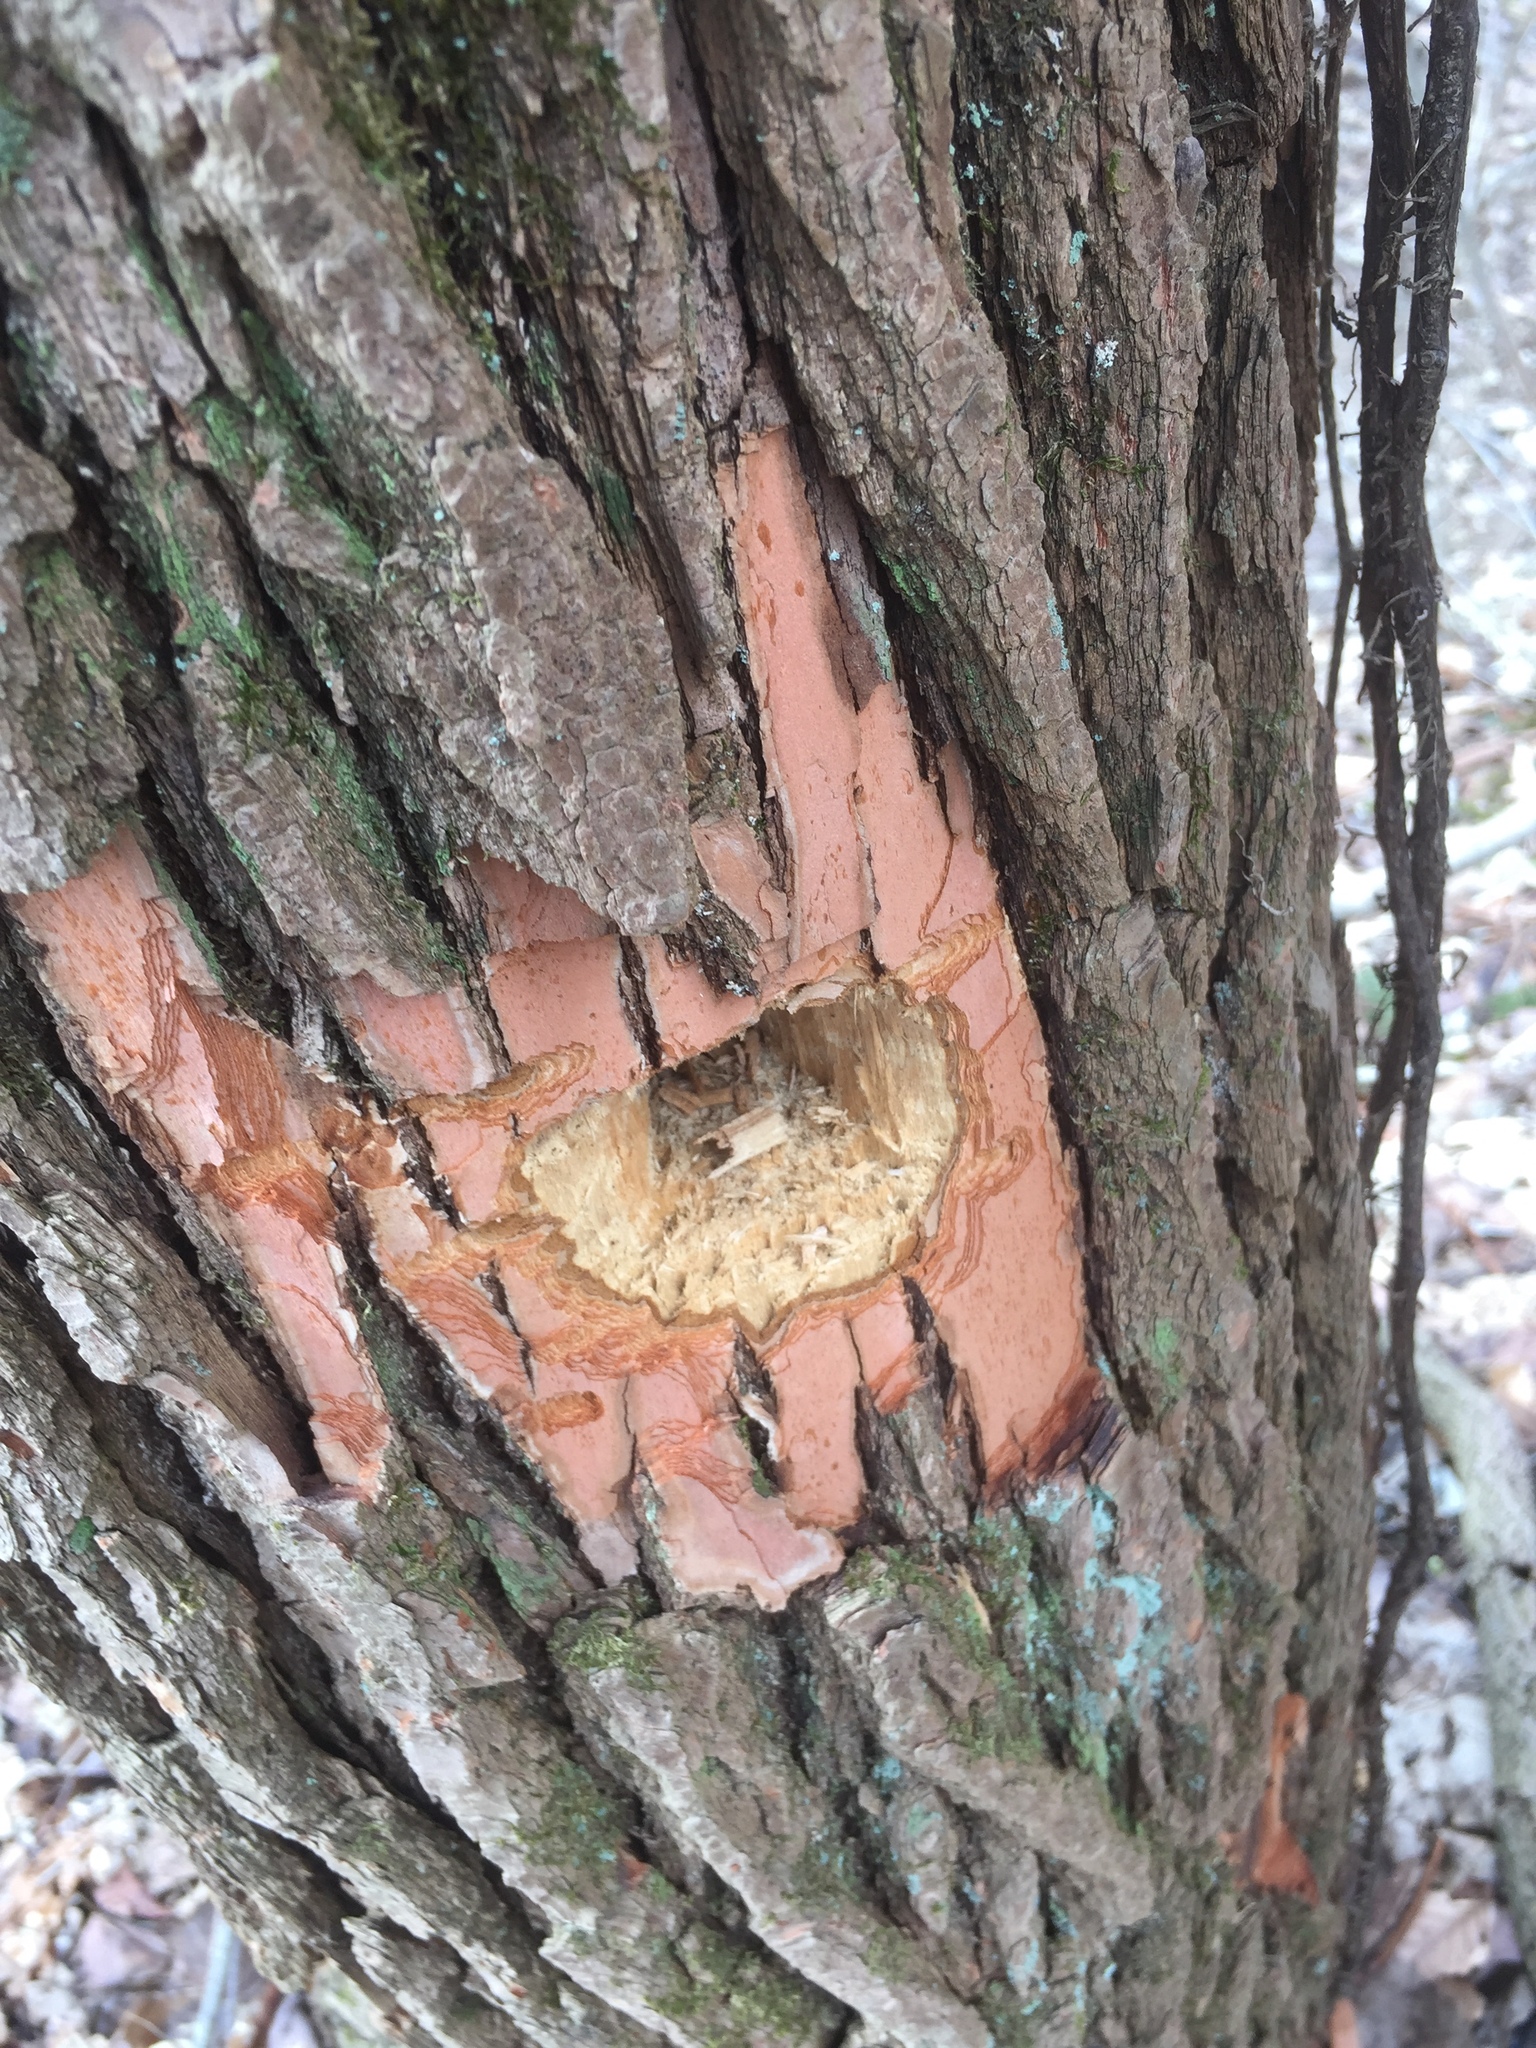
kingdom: Plantae
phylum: Tracheophyta
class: Magnoliopsida
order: Laurales
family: Lauraceae
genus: Sassafras
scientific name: Sassafras albidum
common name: Sassafras
